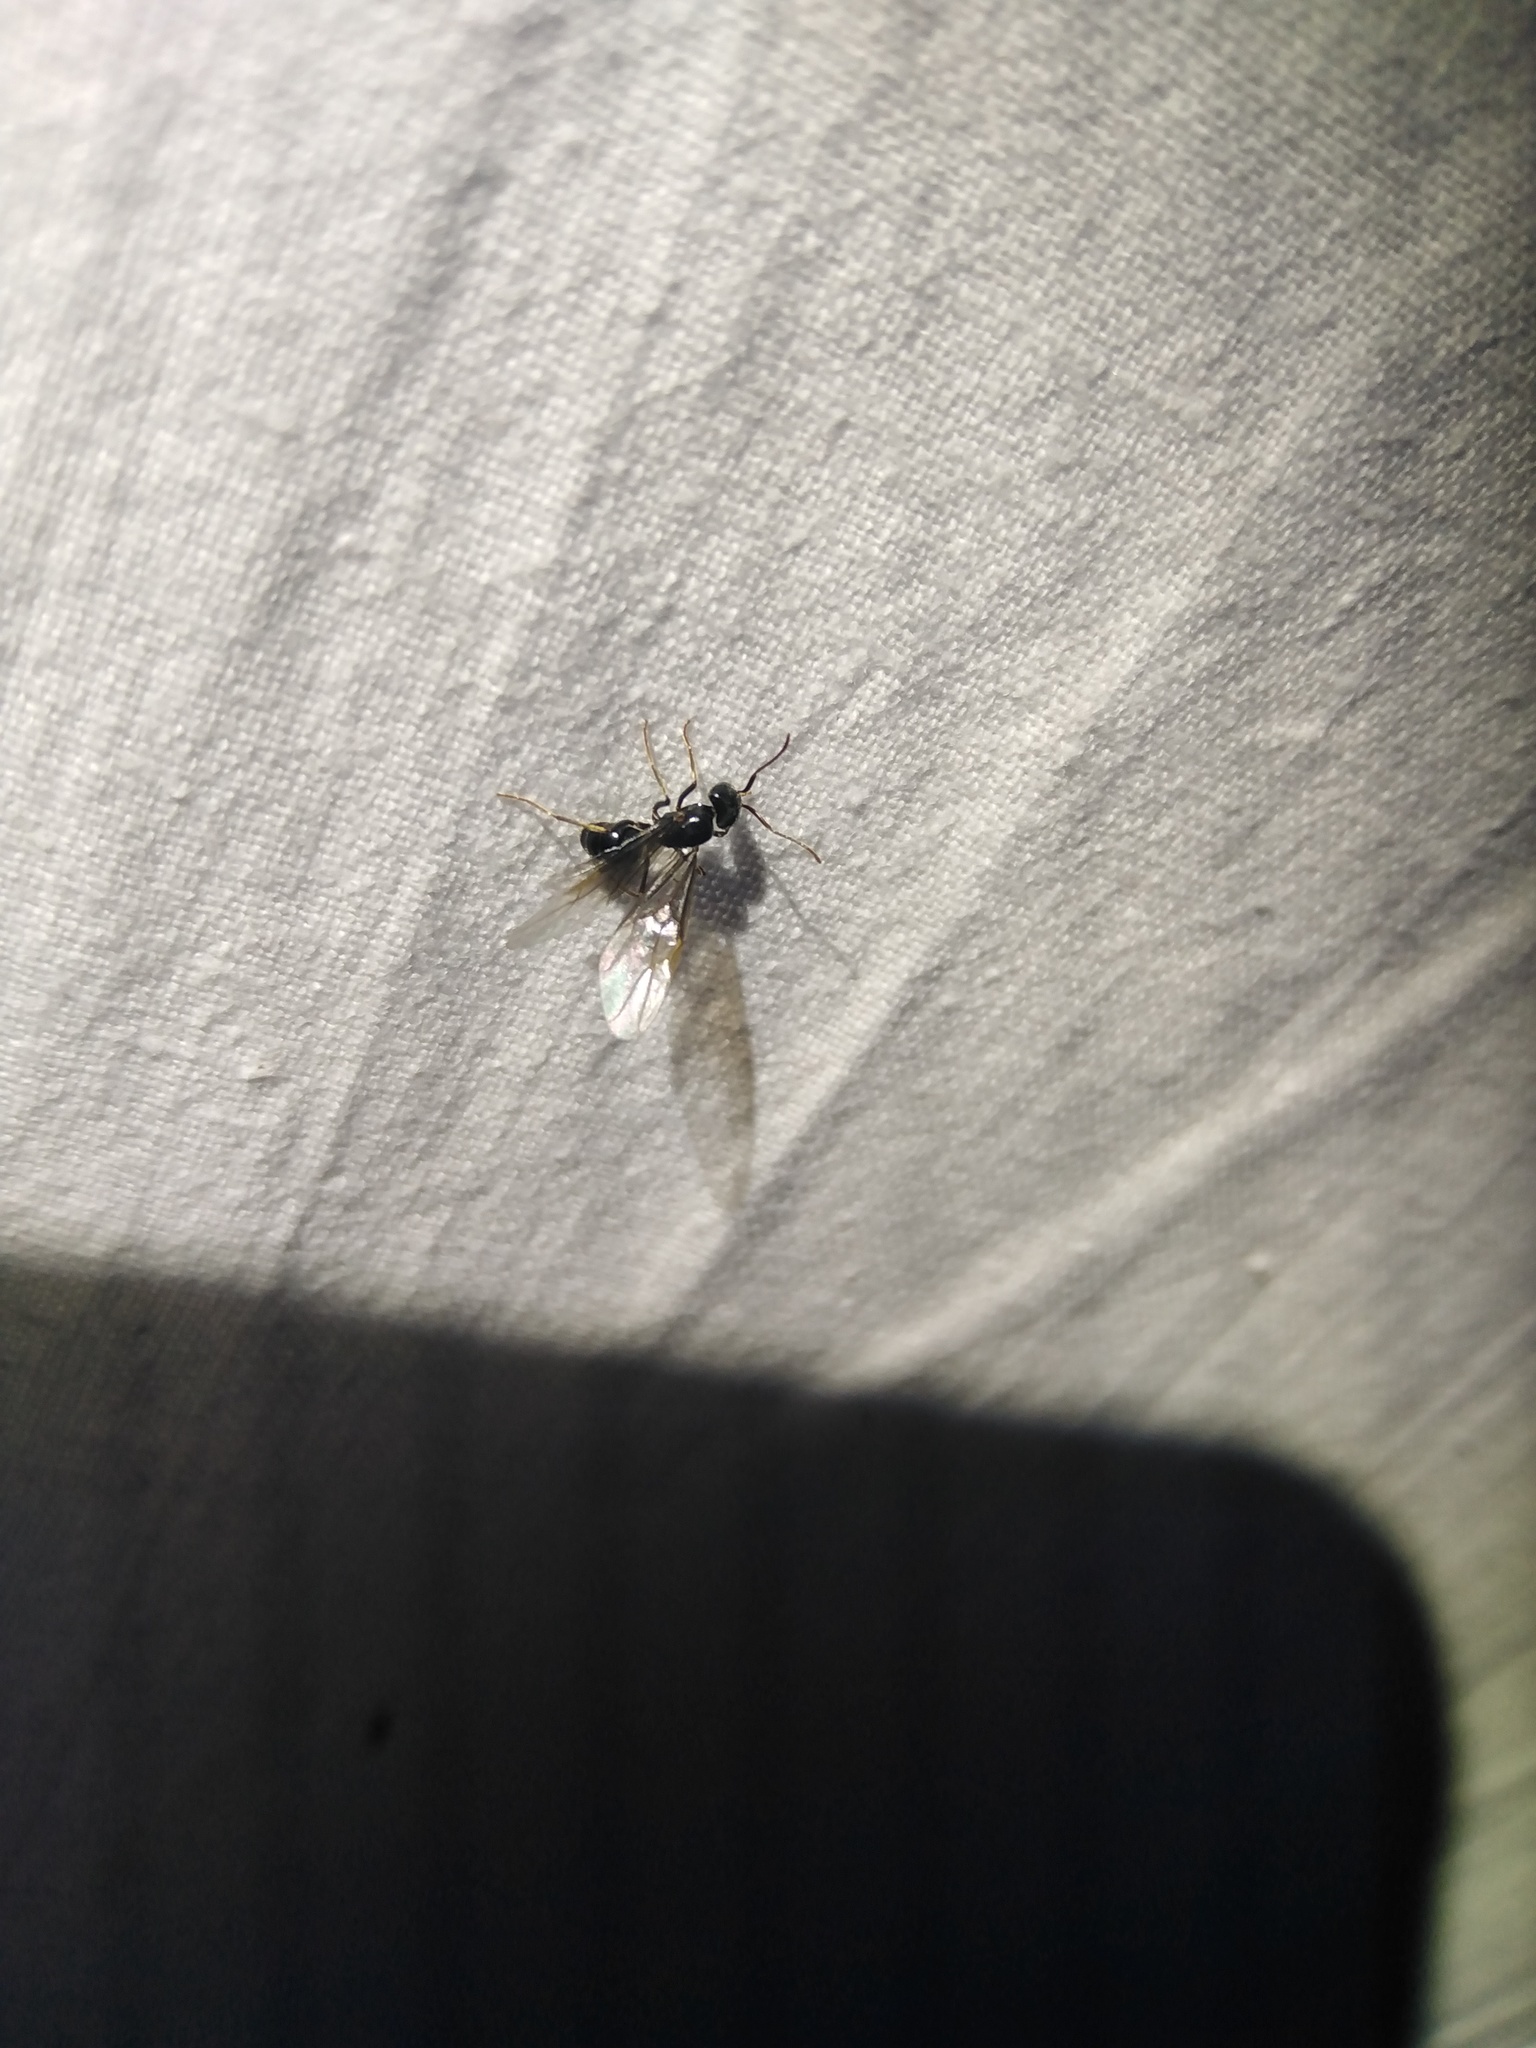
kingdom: Animalia
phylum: Arthropoda
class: Insecta
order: Hymenoptera
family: Formicidae
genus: Lasius
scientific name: Lasius fuliginosus
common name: Jet ant
